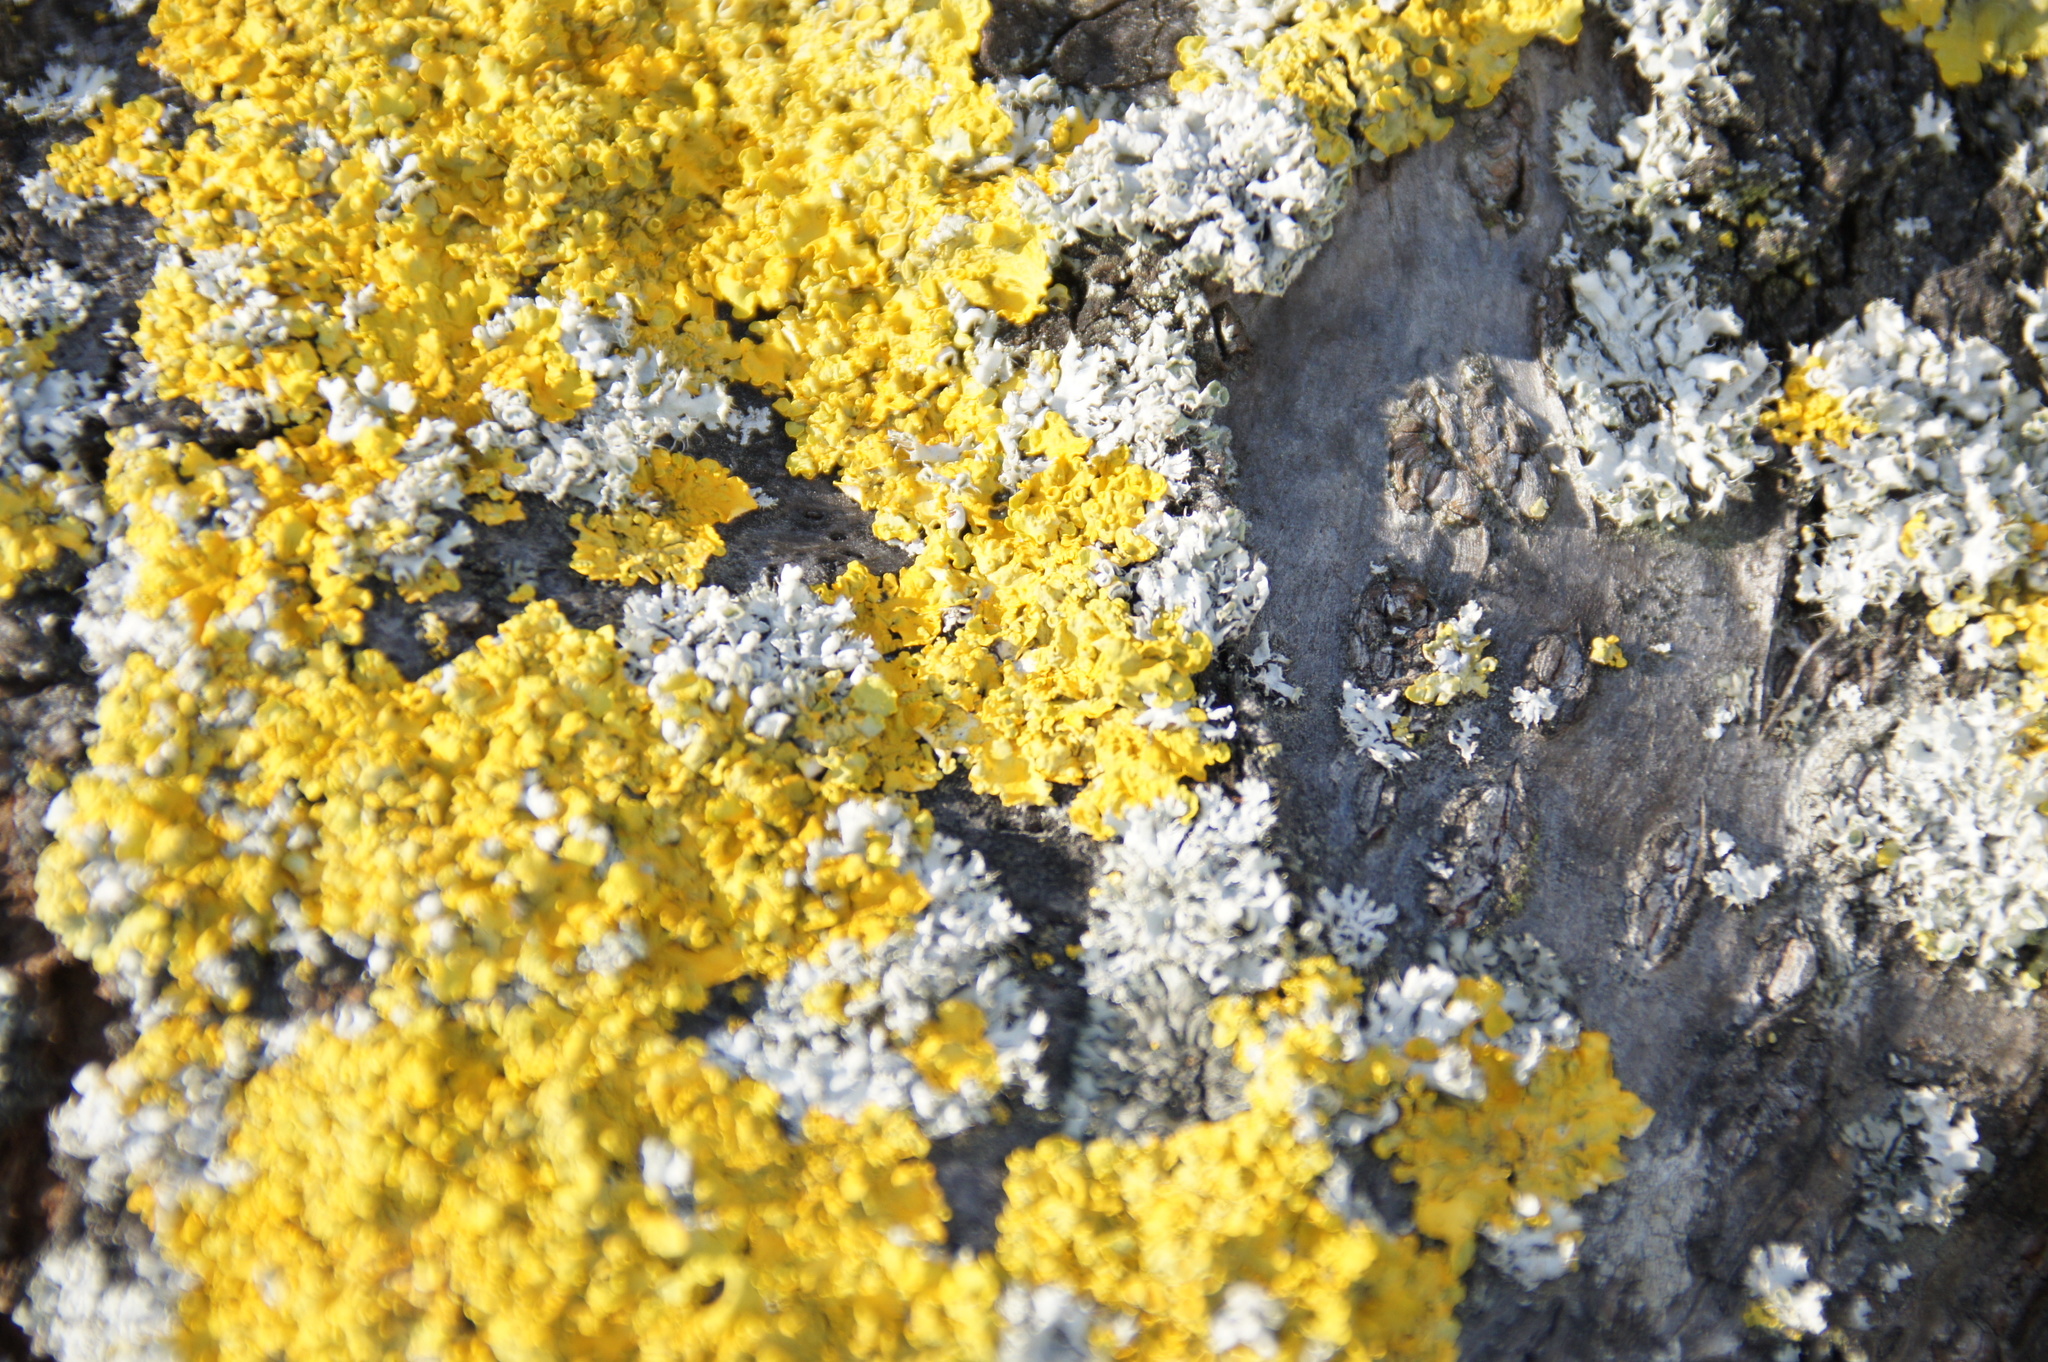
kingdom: Fungi
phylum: Ascomycota
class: Lecanoromycetes
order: Teloschistales
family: Teloschistaceae
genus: Xanthoria
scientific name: Xanthoria parietina
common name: Common orange lichen
